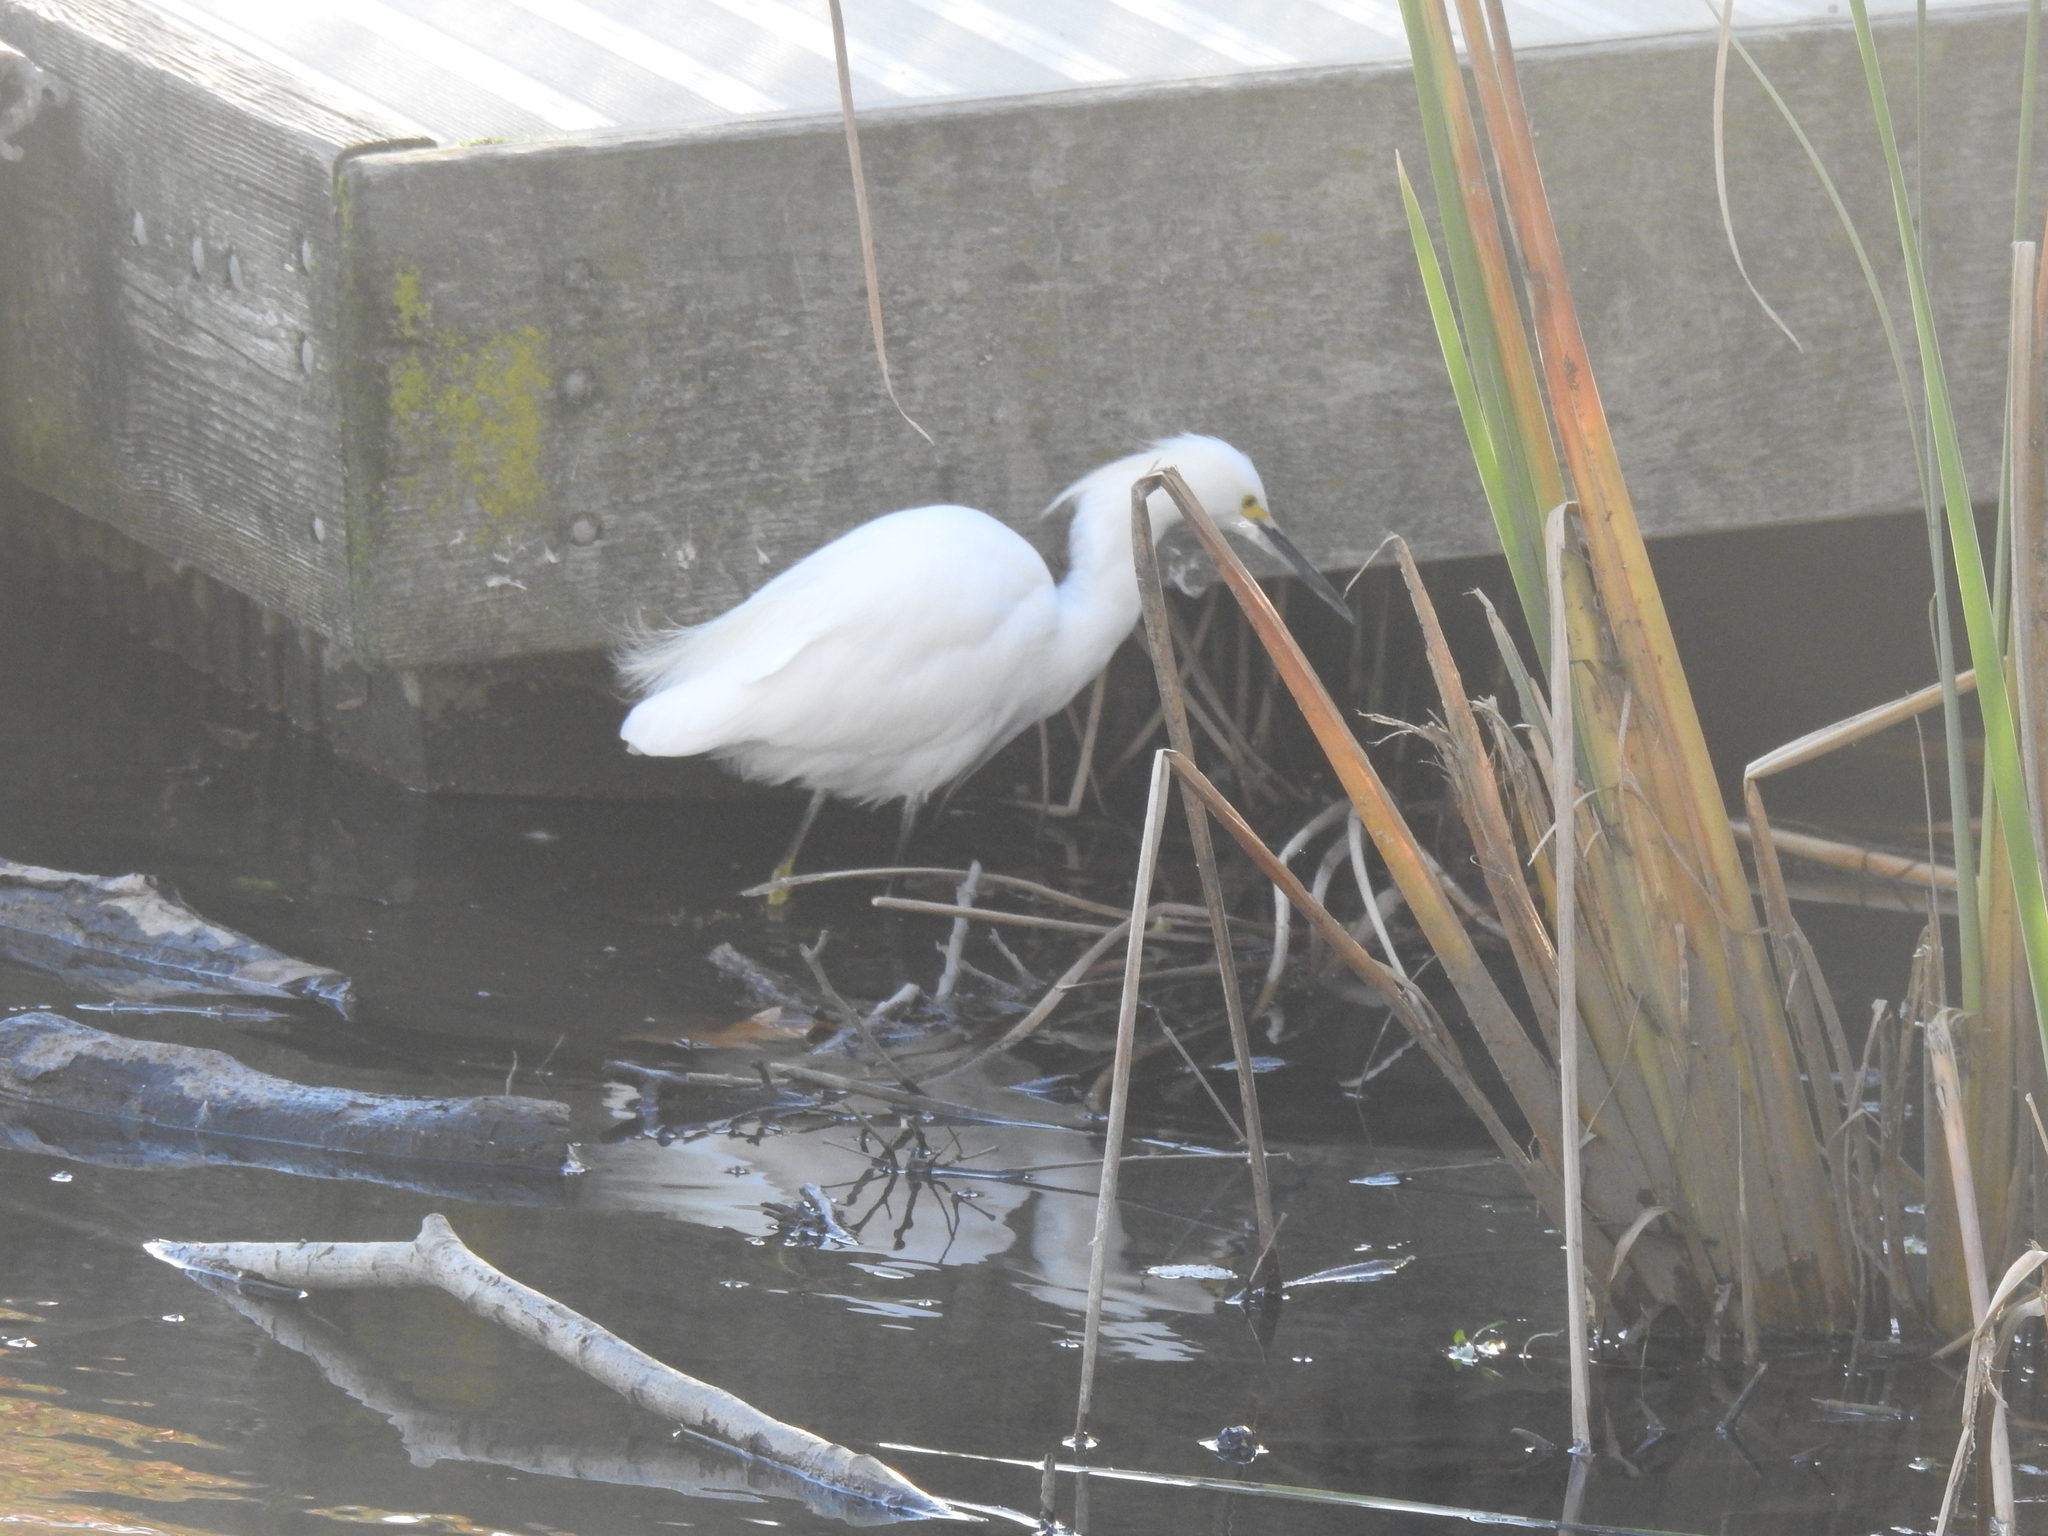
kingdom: Animalia
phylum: Chordata
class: Aves
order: Pelecaniformes
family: Ardeidae
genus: Egretta
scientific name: Egretta thula
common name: Snowy egret
